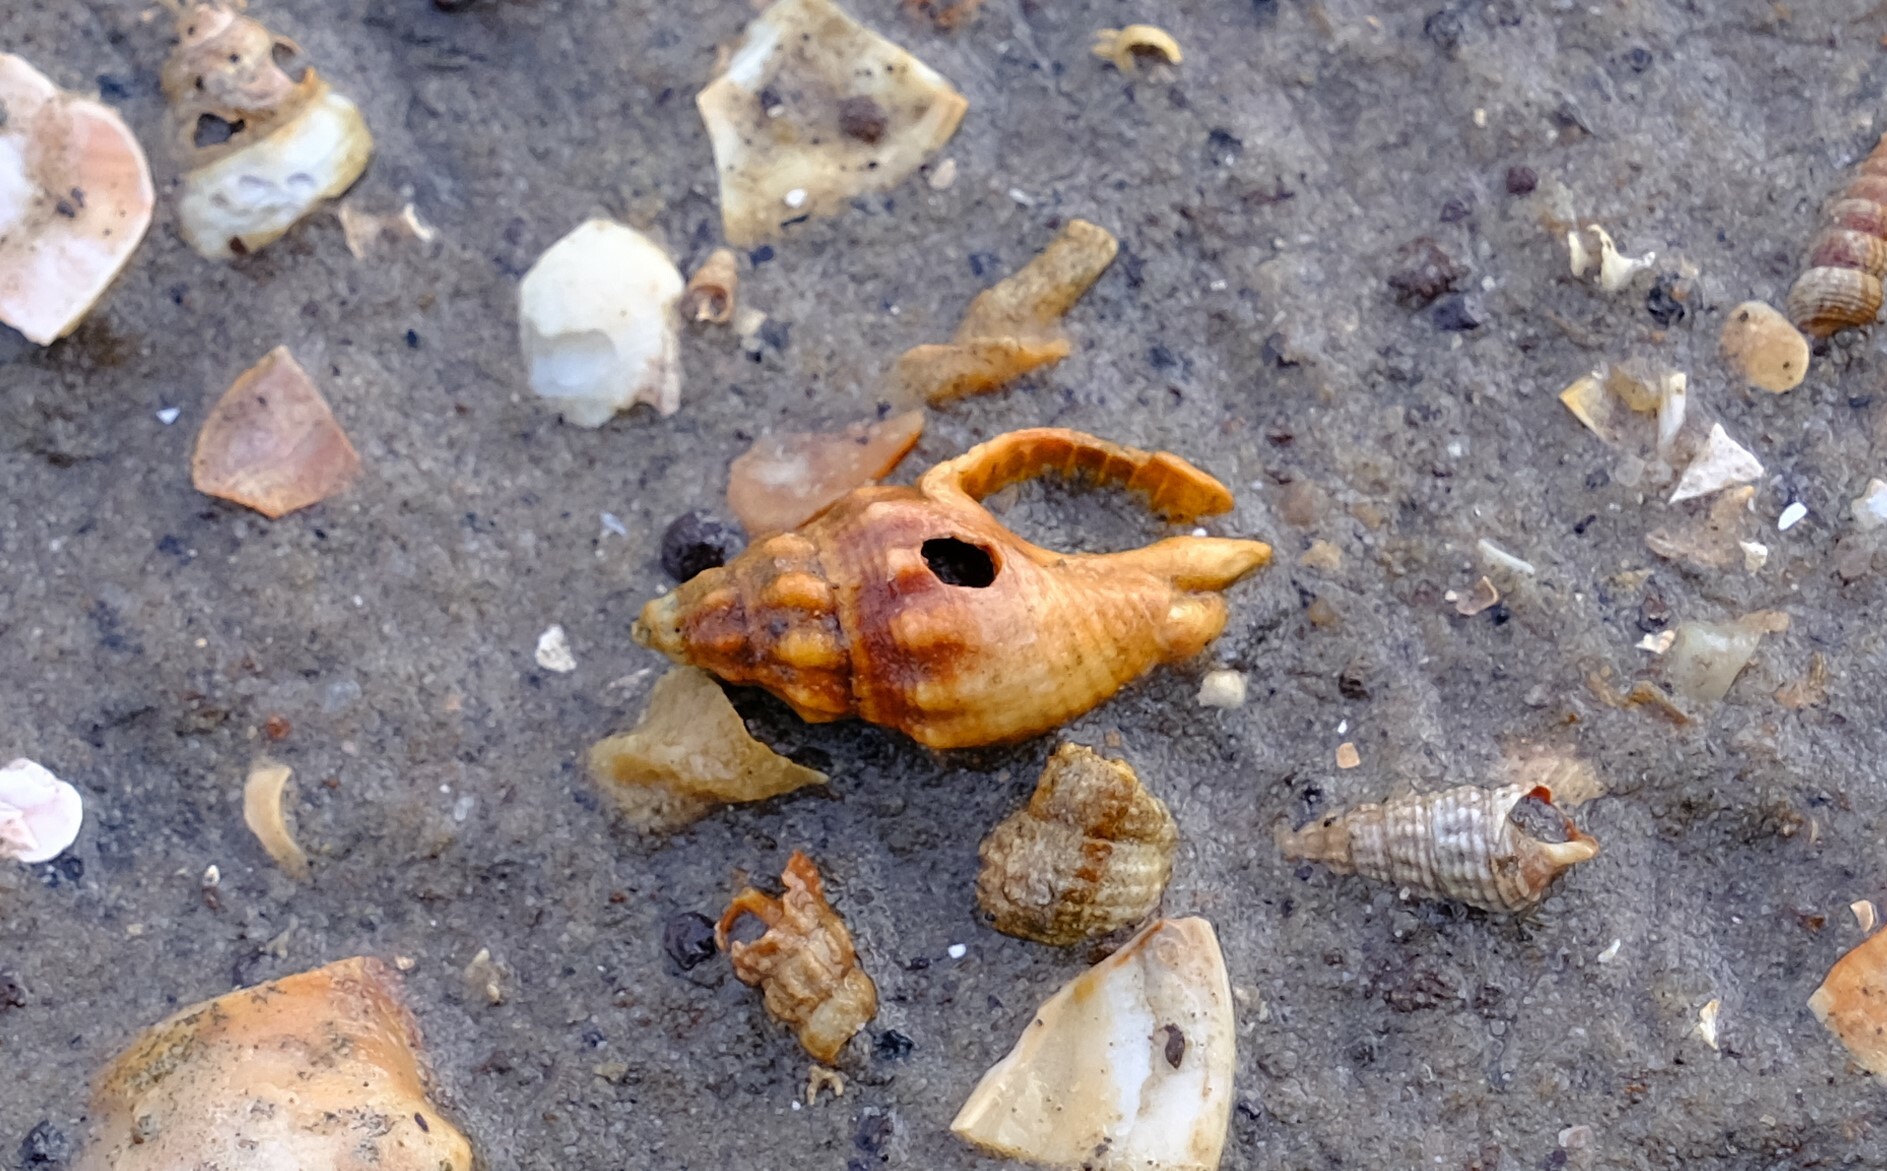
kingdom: Animalia
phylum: Mollusca
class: Gastropoda
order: Neogastropoda
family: Cominellidae
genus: Cominella
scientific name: Cominella eburnea
